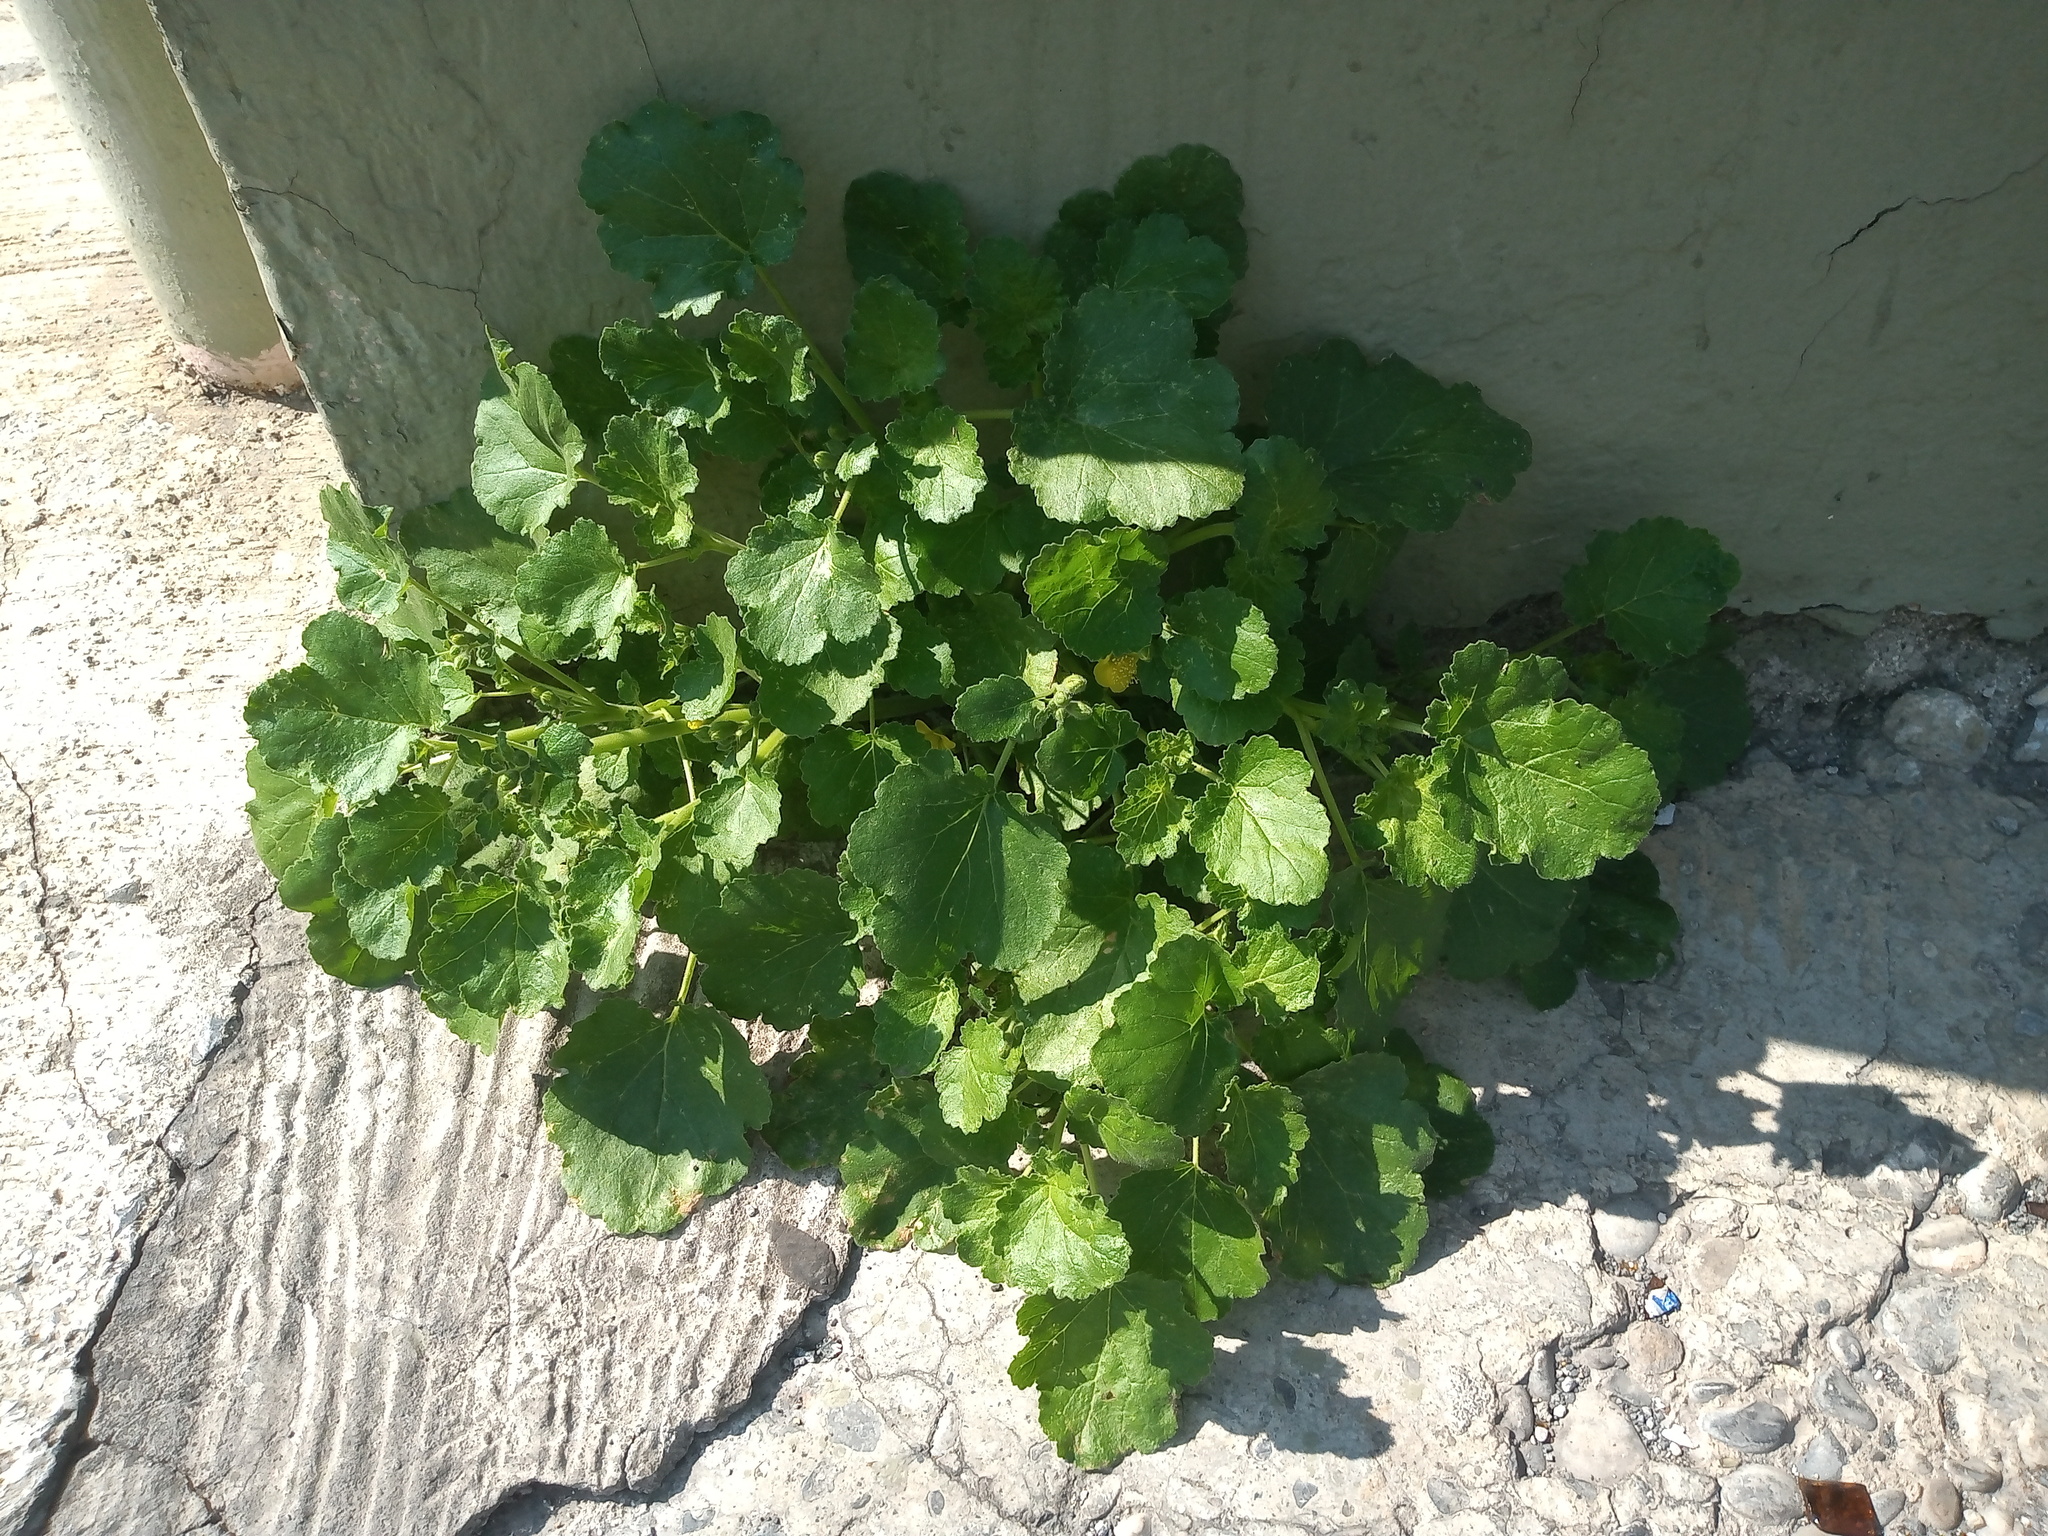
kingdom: Plantae
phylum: Tracheophyta
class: Magnoliopsida
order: Cornales
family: Loasaceae
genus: Eucnide
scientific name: Eucnide lobata
